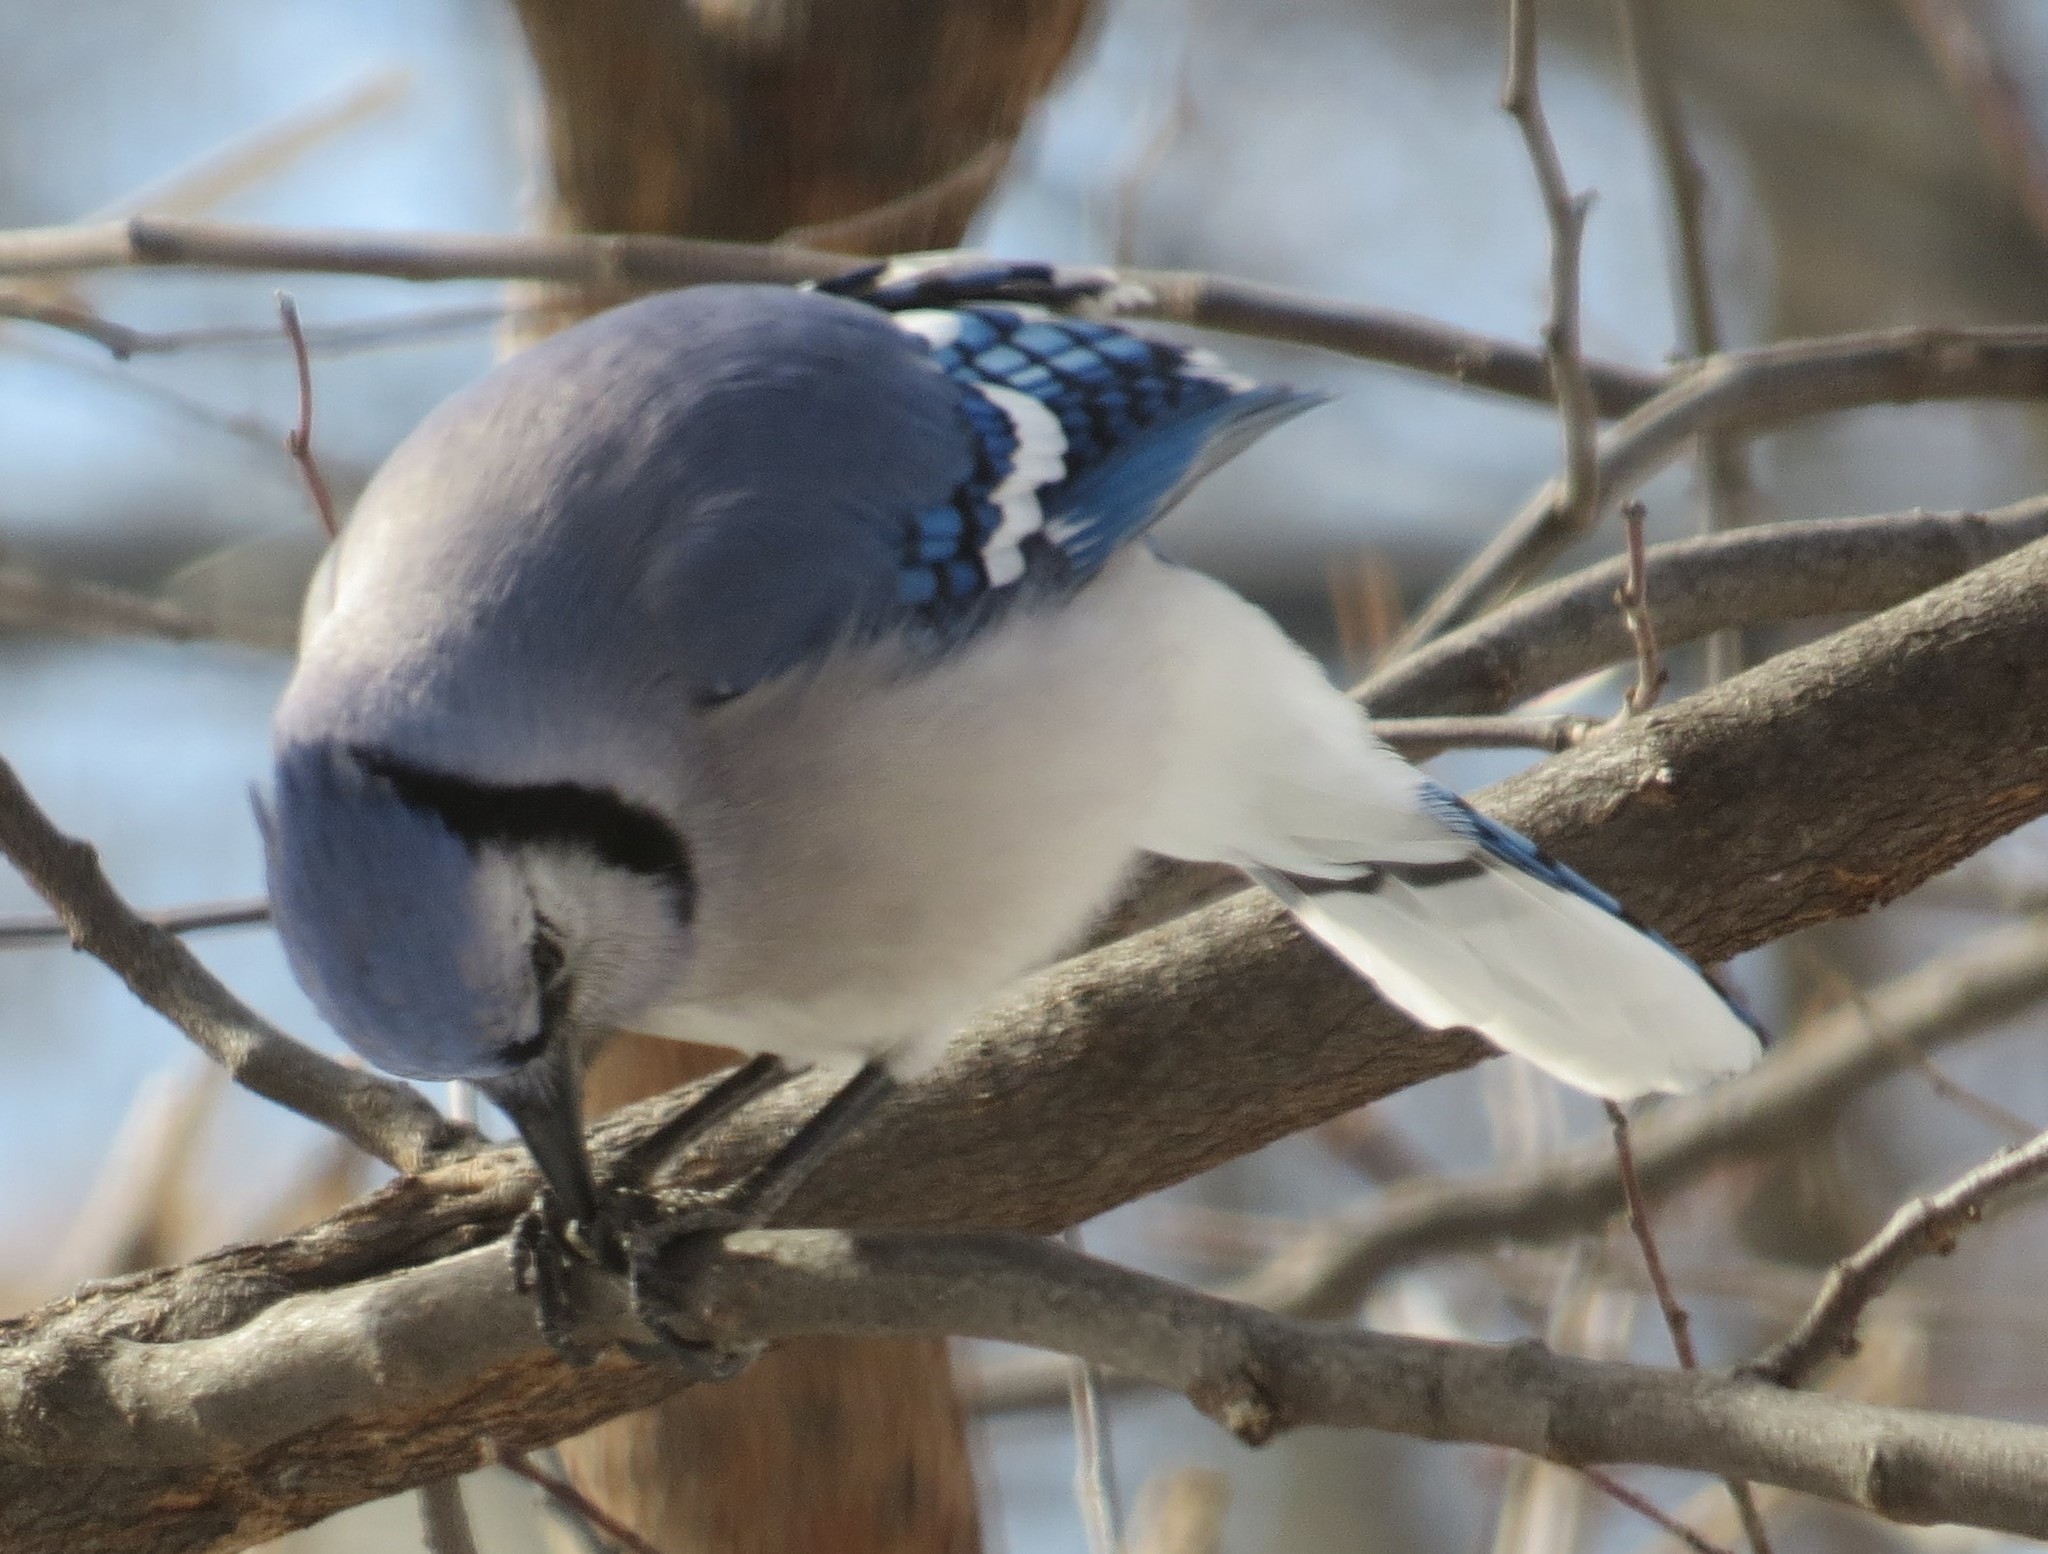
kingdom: Animalia
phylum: Chordata
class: Aves
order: Passeriformes
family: Corvidae
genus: Cyanocitta
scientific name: Cyanocitta cristata
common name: Blue jay
